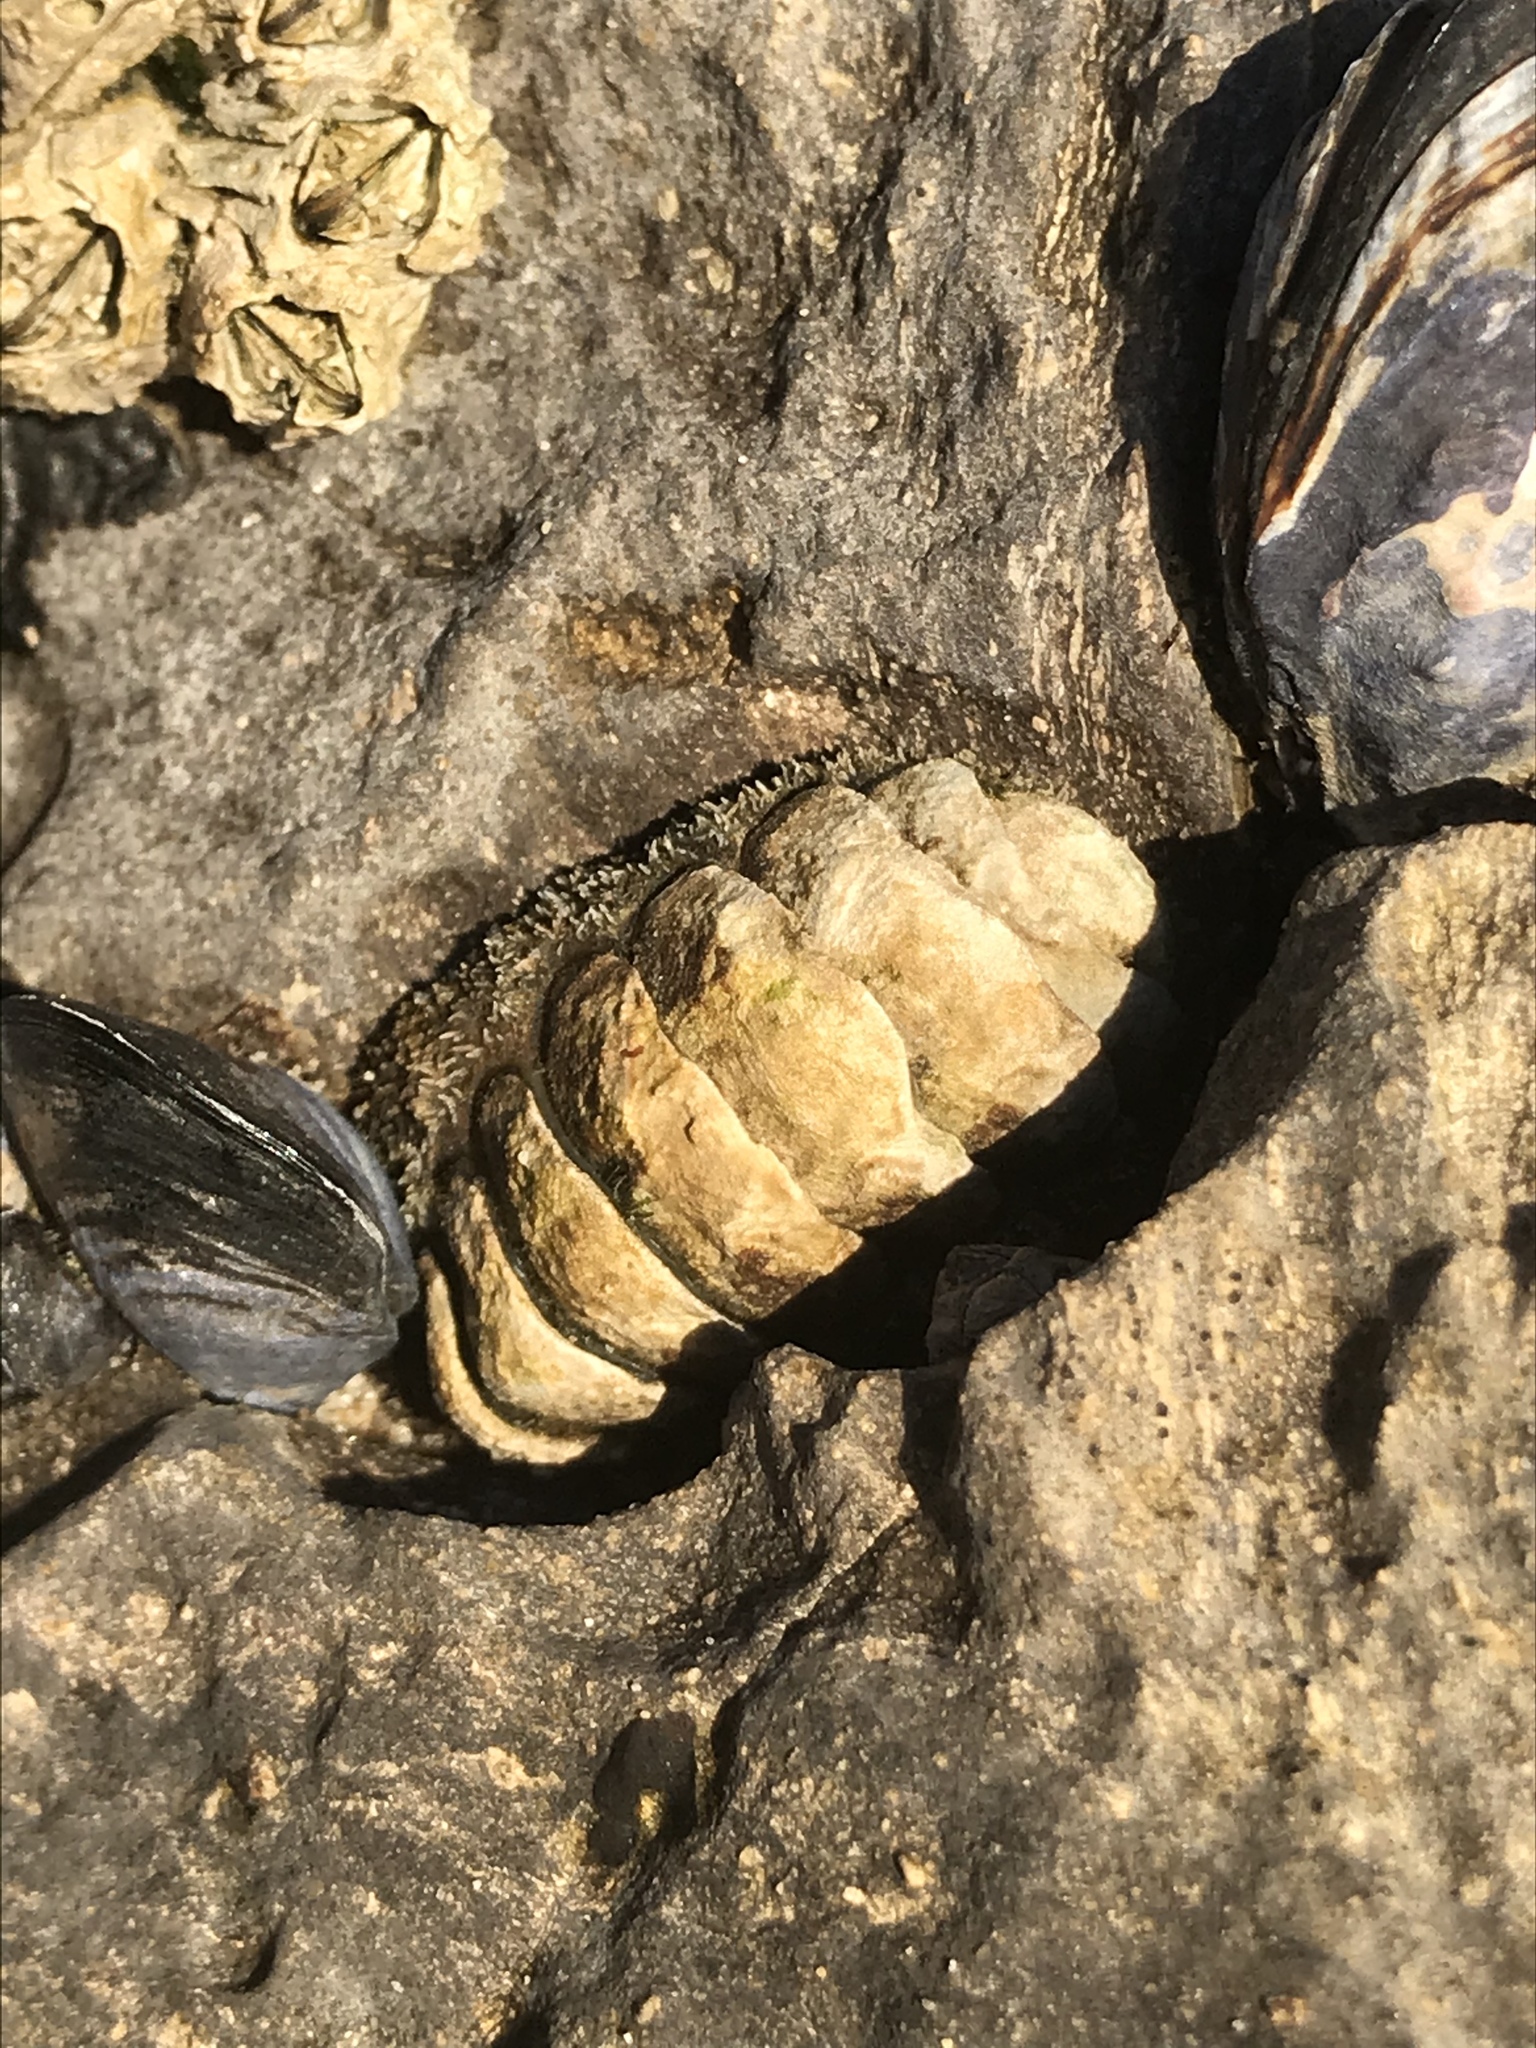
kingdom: Animalia
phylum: Mollusca
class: Polyplacophora
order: Chitonida
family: Tonicellidae
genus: Nuttallina
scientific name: Nuttallina californica
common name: California nuttall chiton
